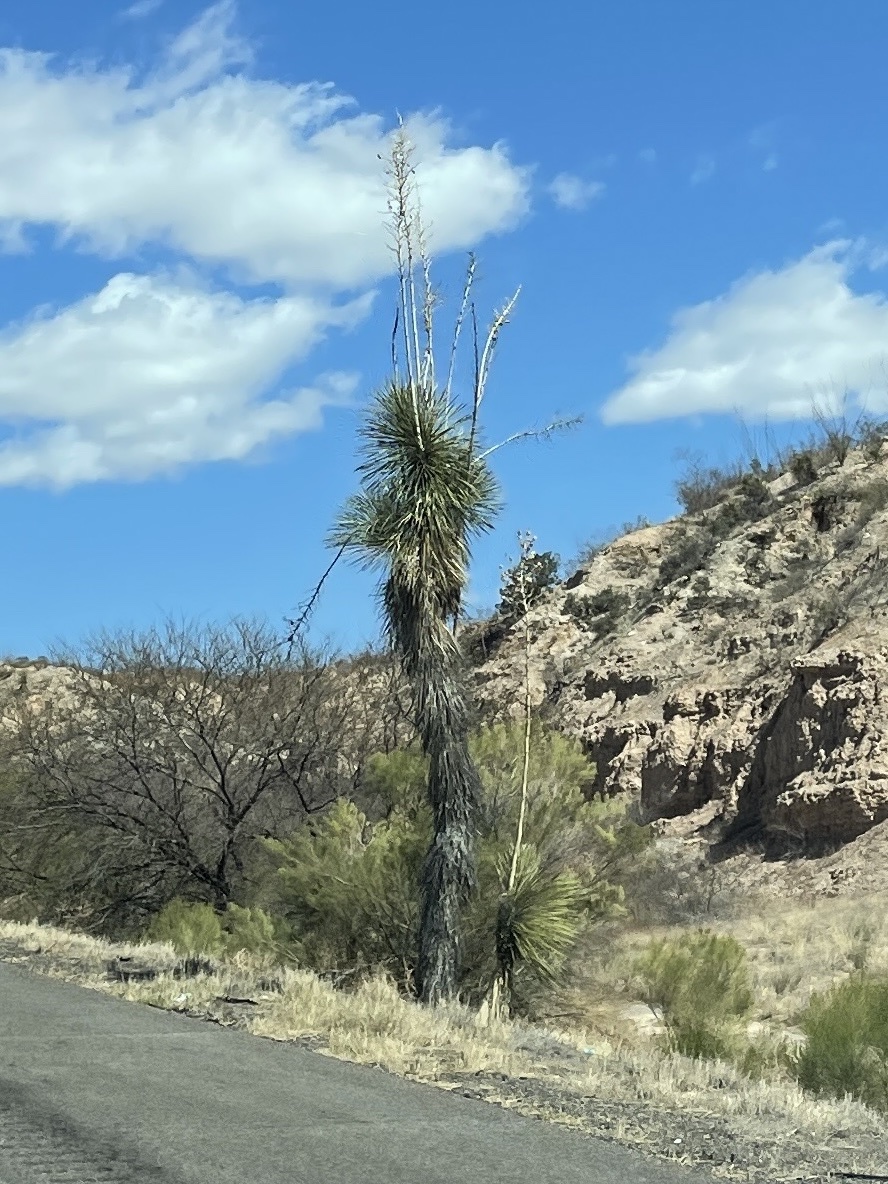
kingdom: Plantae
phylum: Tracheophyta
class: Liliopsida
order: Asparagales
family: Asparagaceae
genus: Yucca
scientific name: Yucca elata
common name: Palmella
